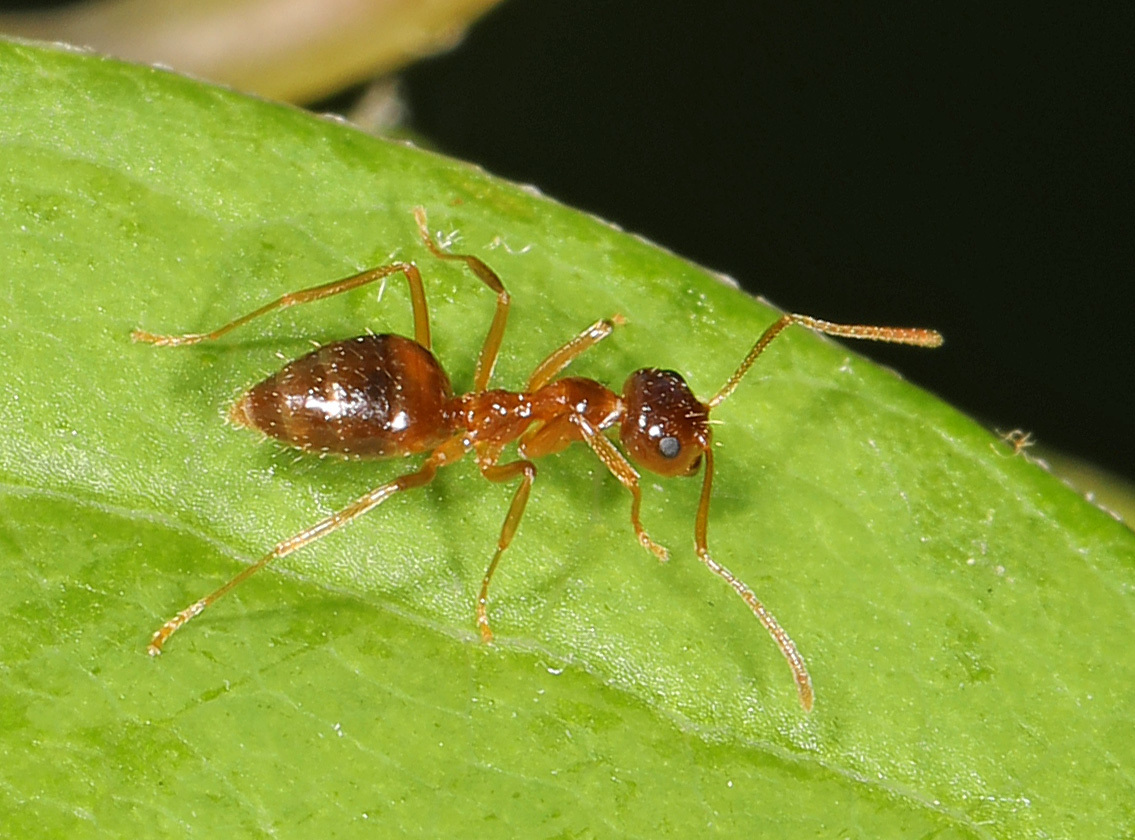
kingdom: Animalia
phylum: Arthropoda
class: Insecta
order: Hymenoptera
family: Formicidae
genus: Prenolepis
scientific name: Prenolepis imparis
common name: Small honey ant
